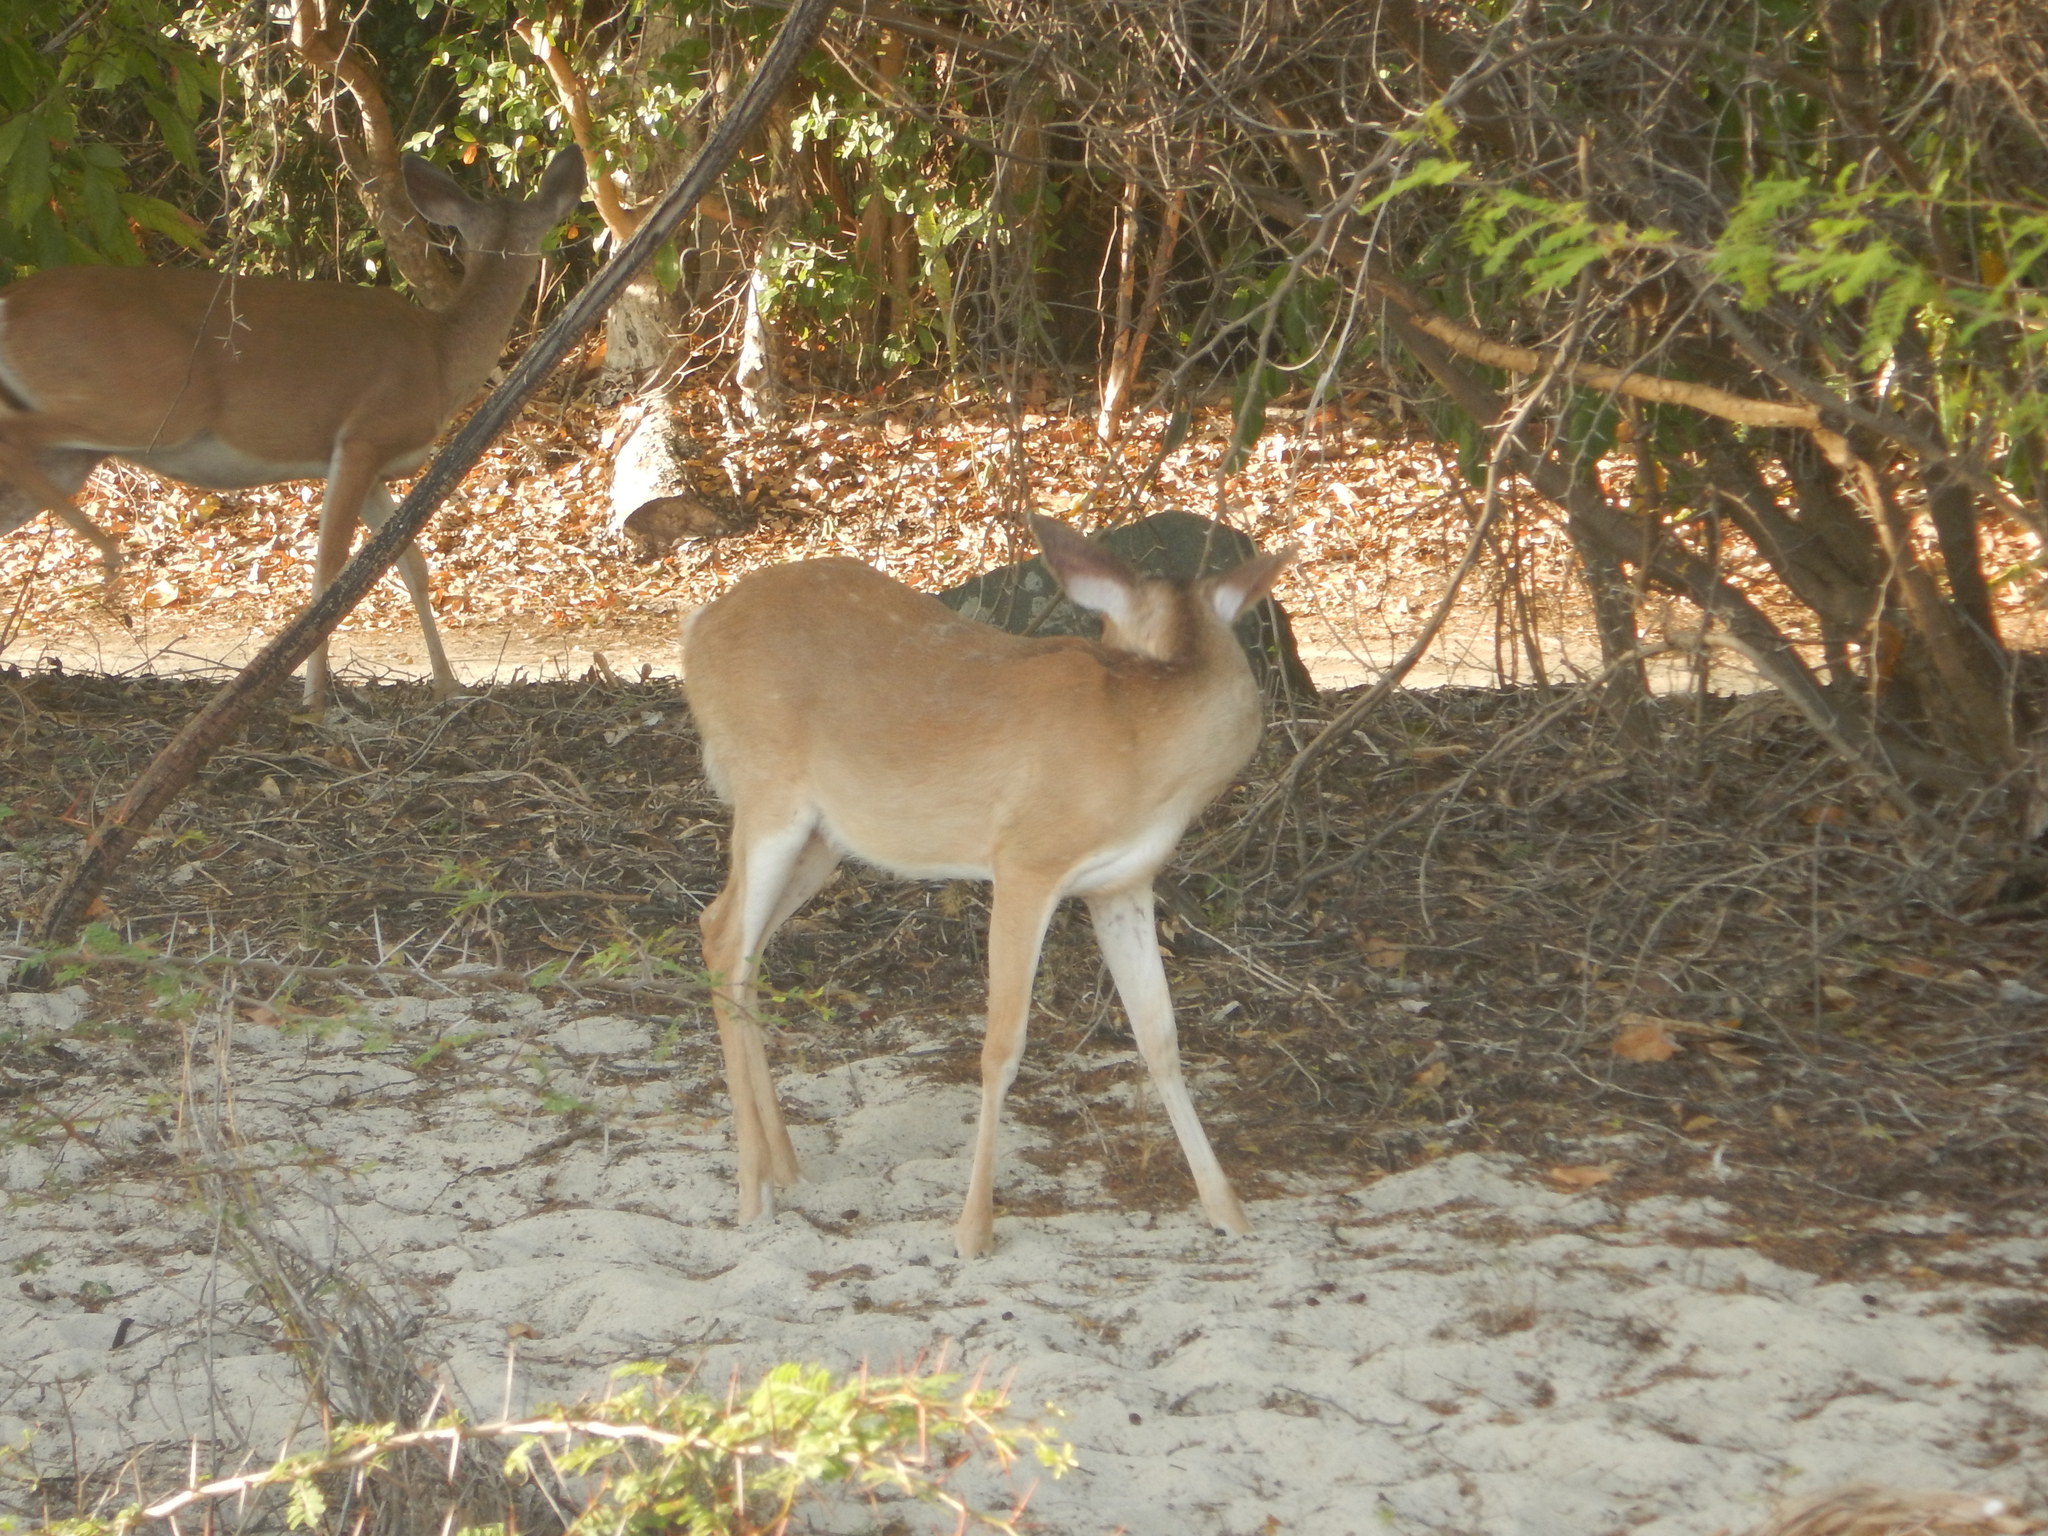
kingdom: Animalia
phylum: Chordata
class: Mammalia
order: Artiodactyla
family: Cervidae
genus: Odocoileus
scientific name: Odocoileus virginianus
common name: White-tailed deer
